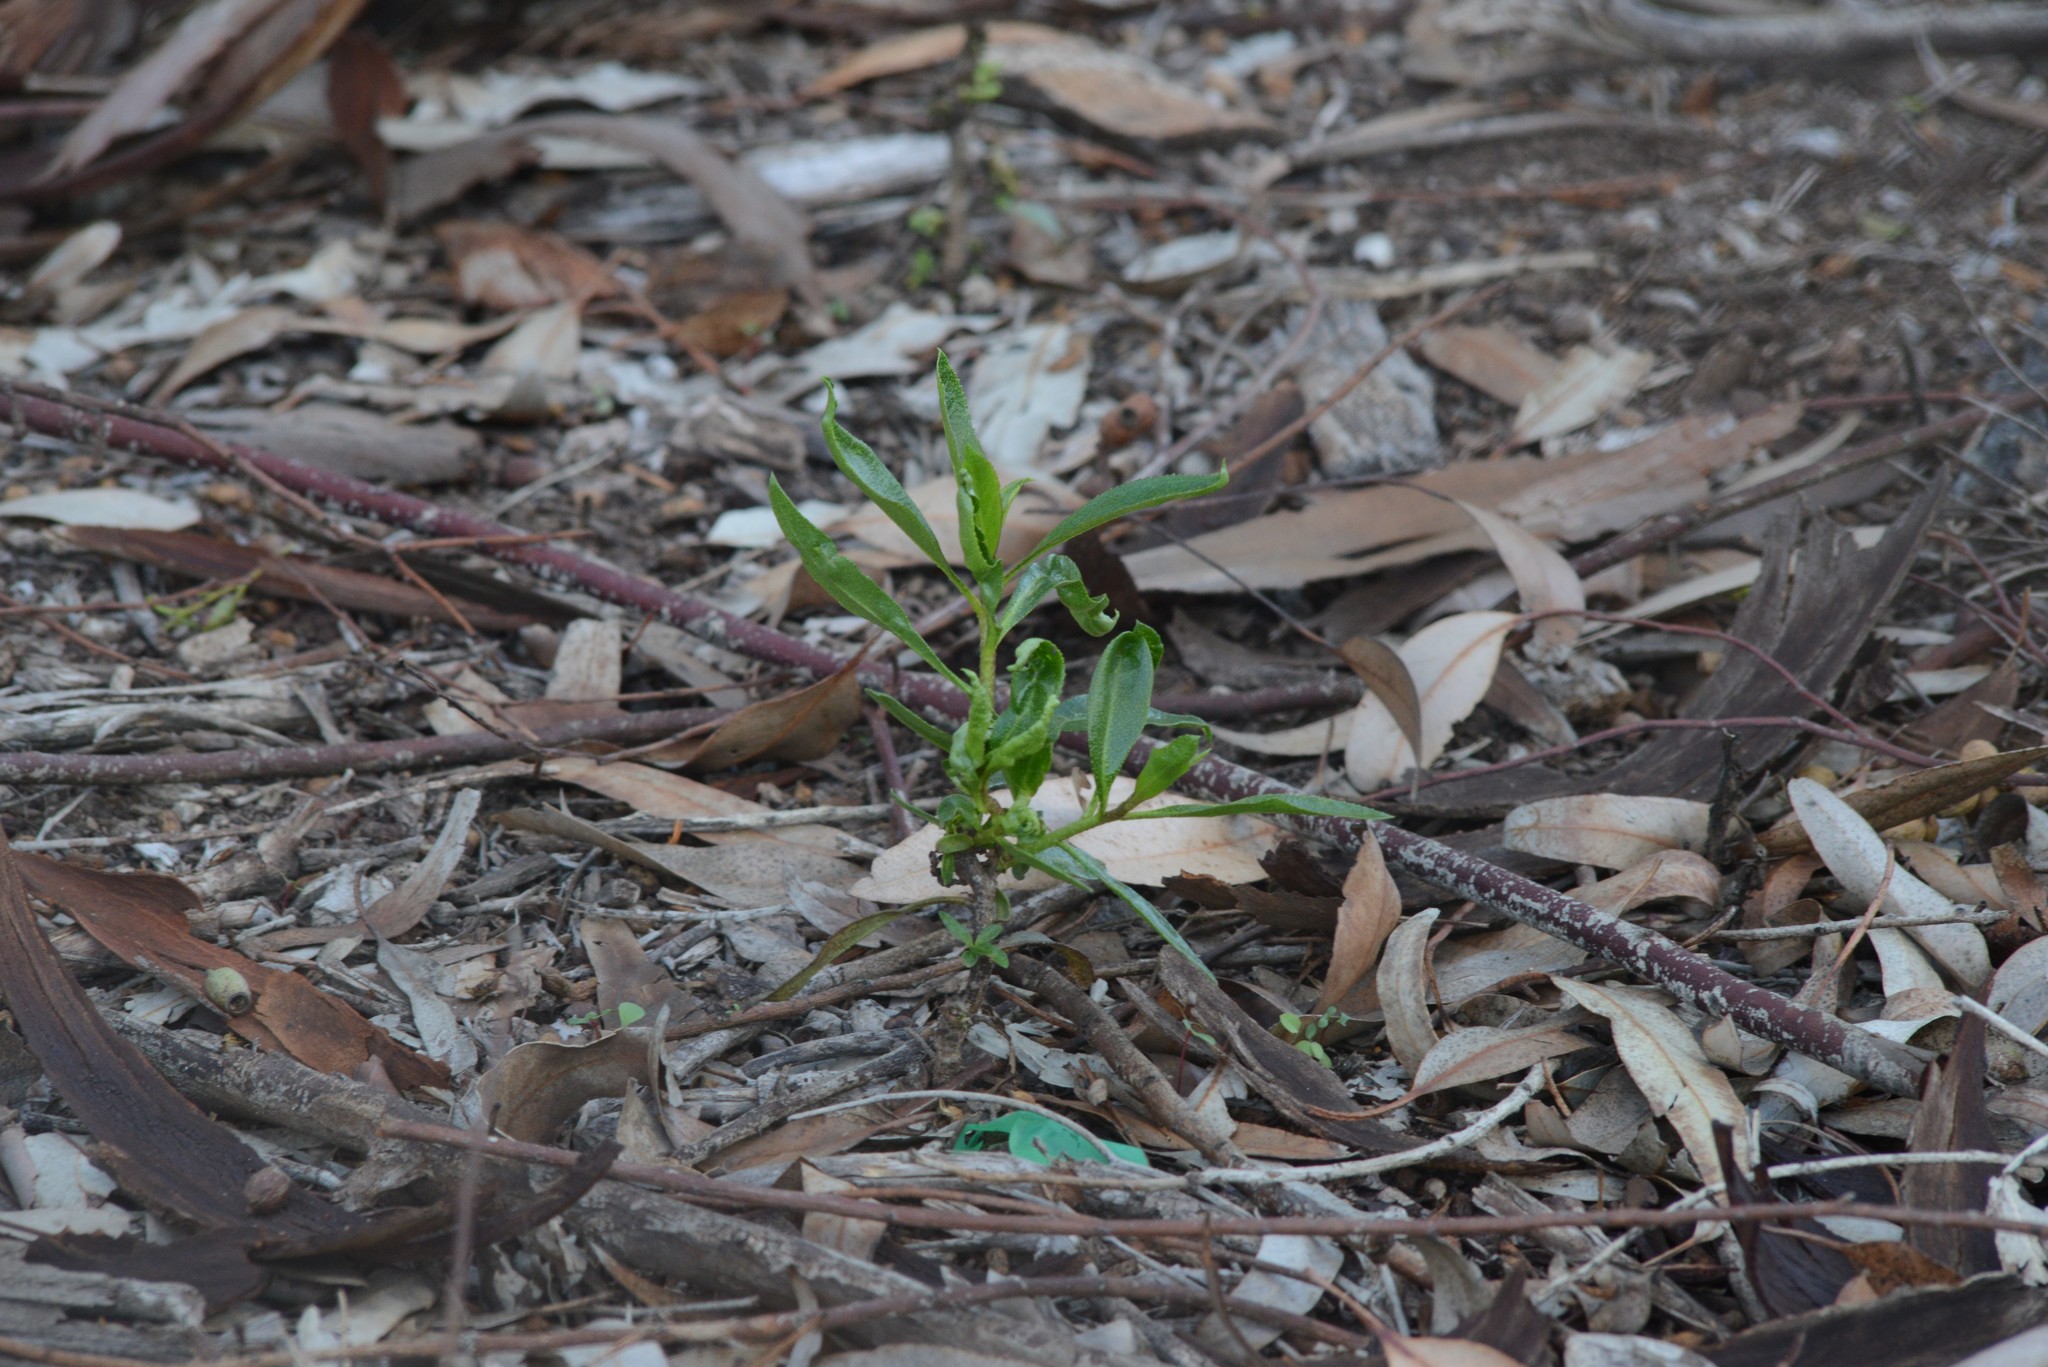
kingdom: Plantae
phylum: Tracheophyta
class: Magnoliopsida
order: Lamiales
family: Scrophulariaceae
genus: Myoporum
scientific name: Myoporum laetum
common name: Ngaio tree
